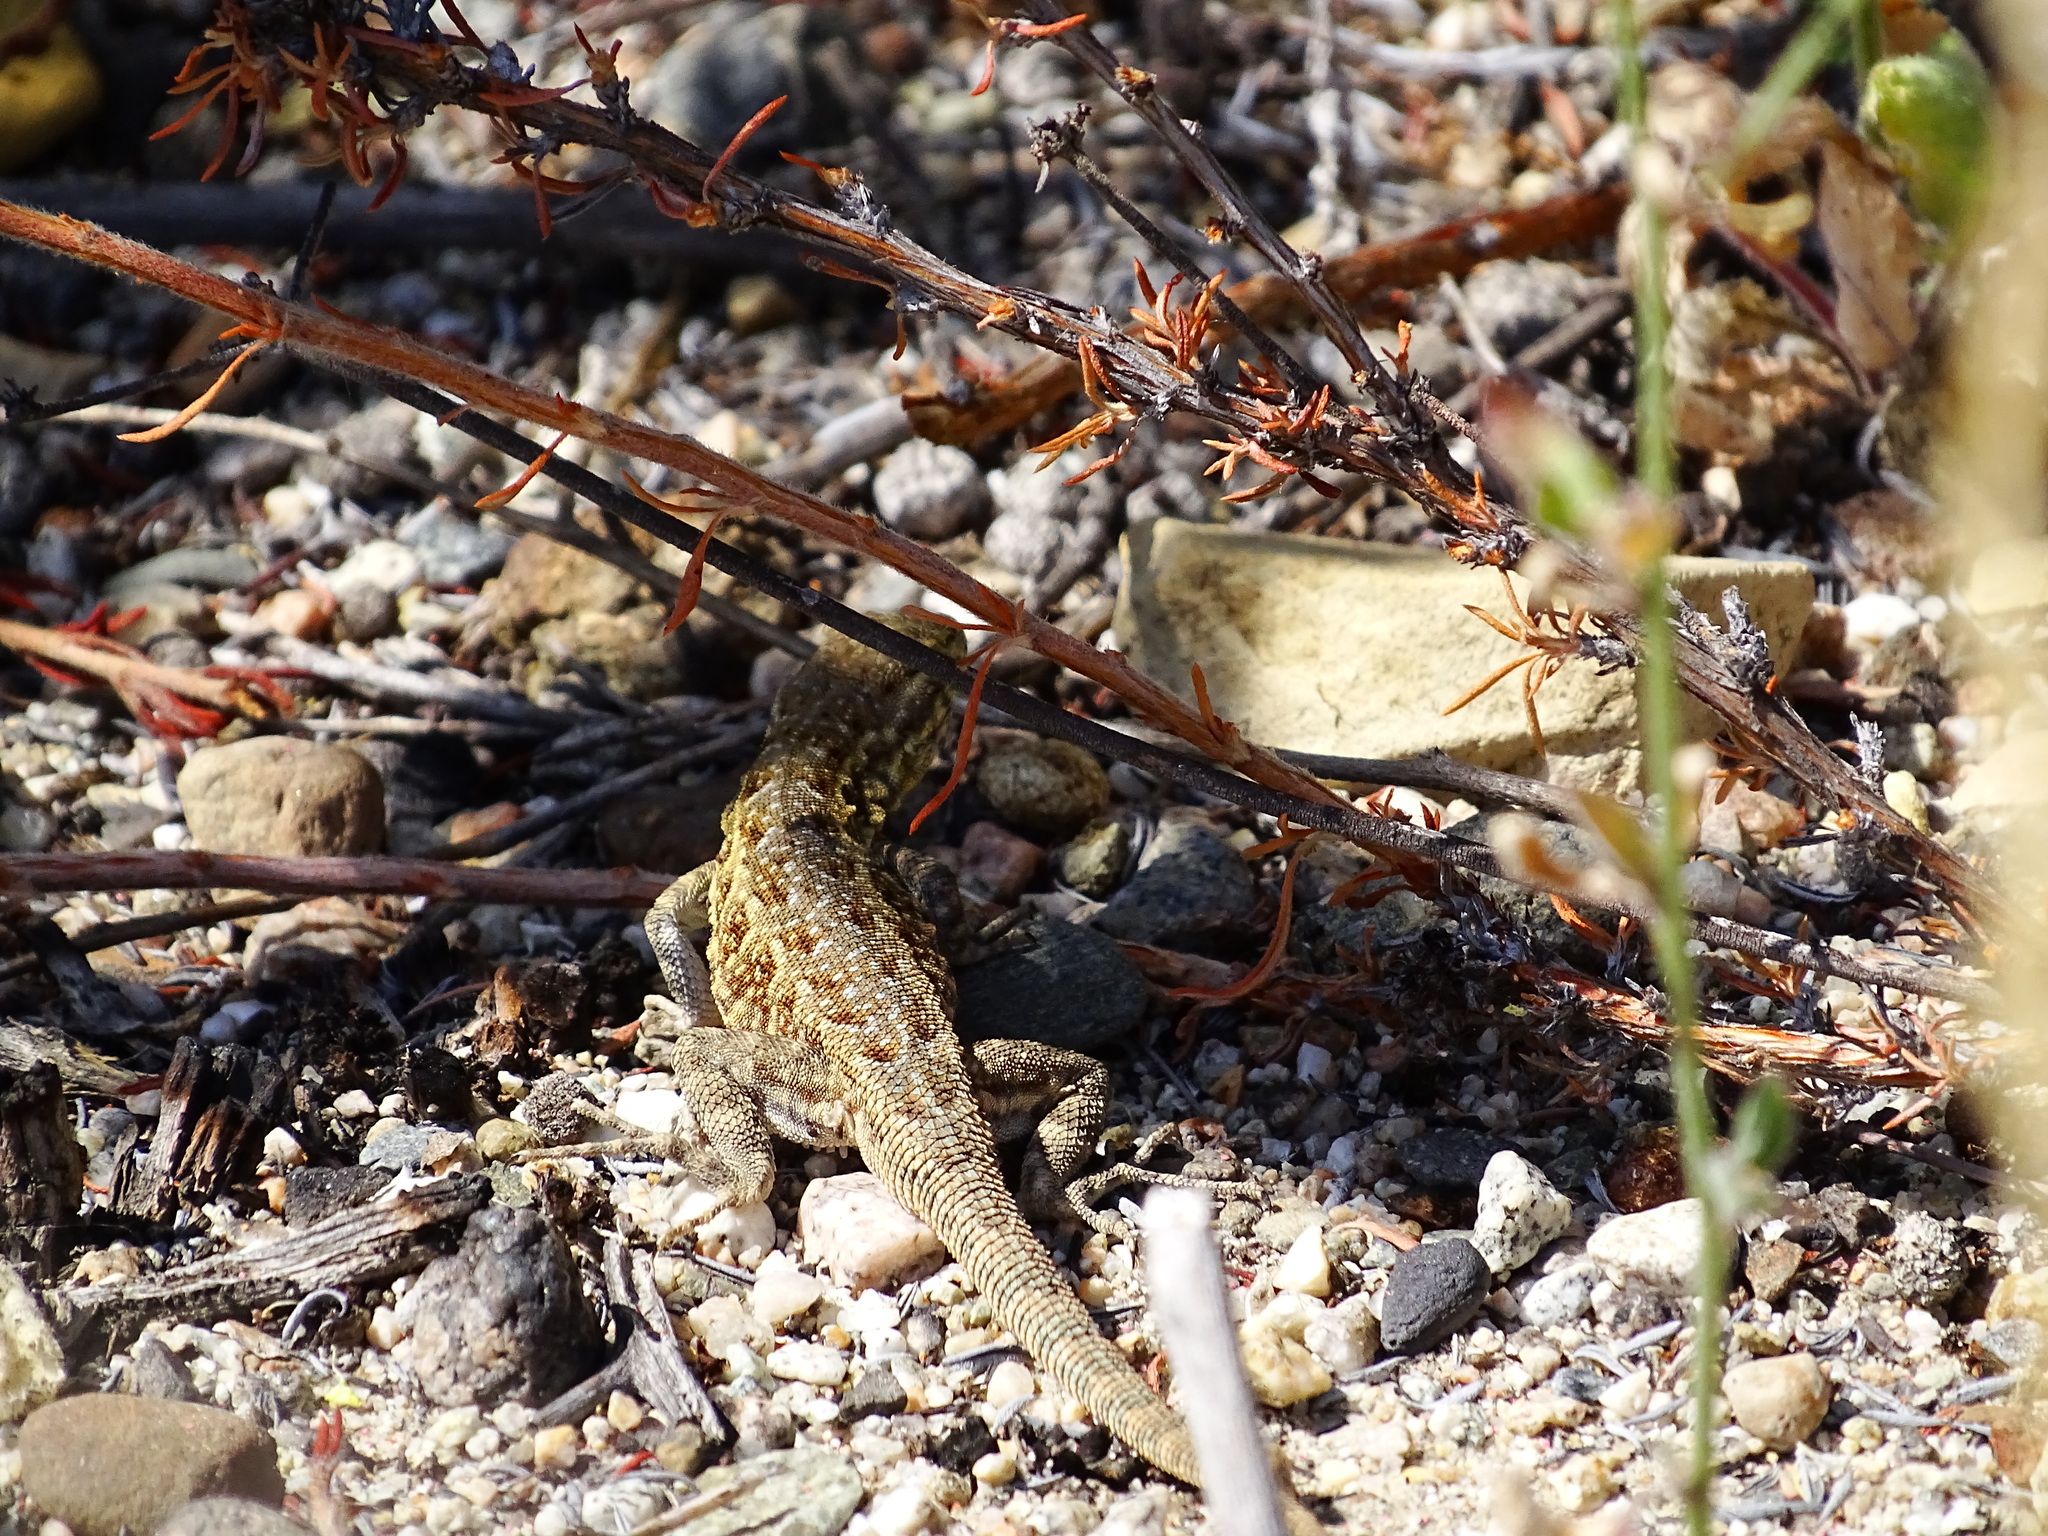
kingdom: Animalia
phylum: Chordata
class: Squamata
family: Phrynosomatidae
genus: Uta
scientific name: Uta stansburiana
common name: Side-blotched lizard
